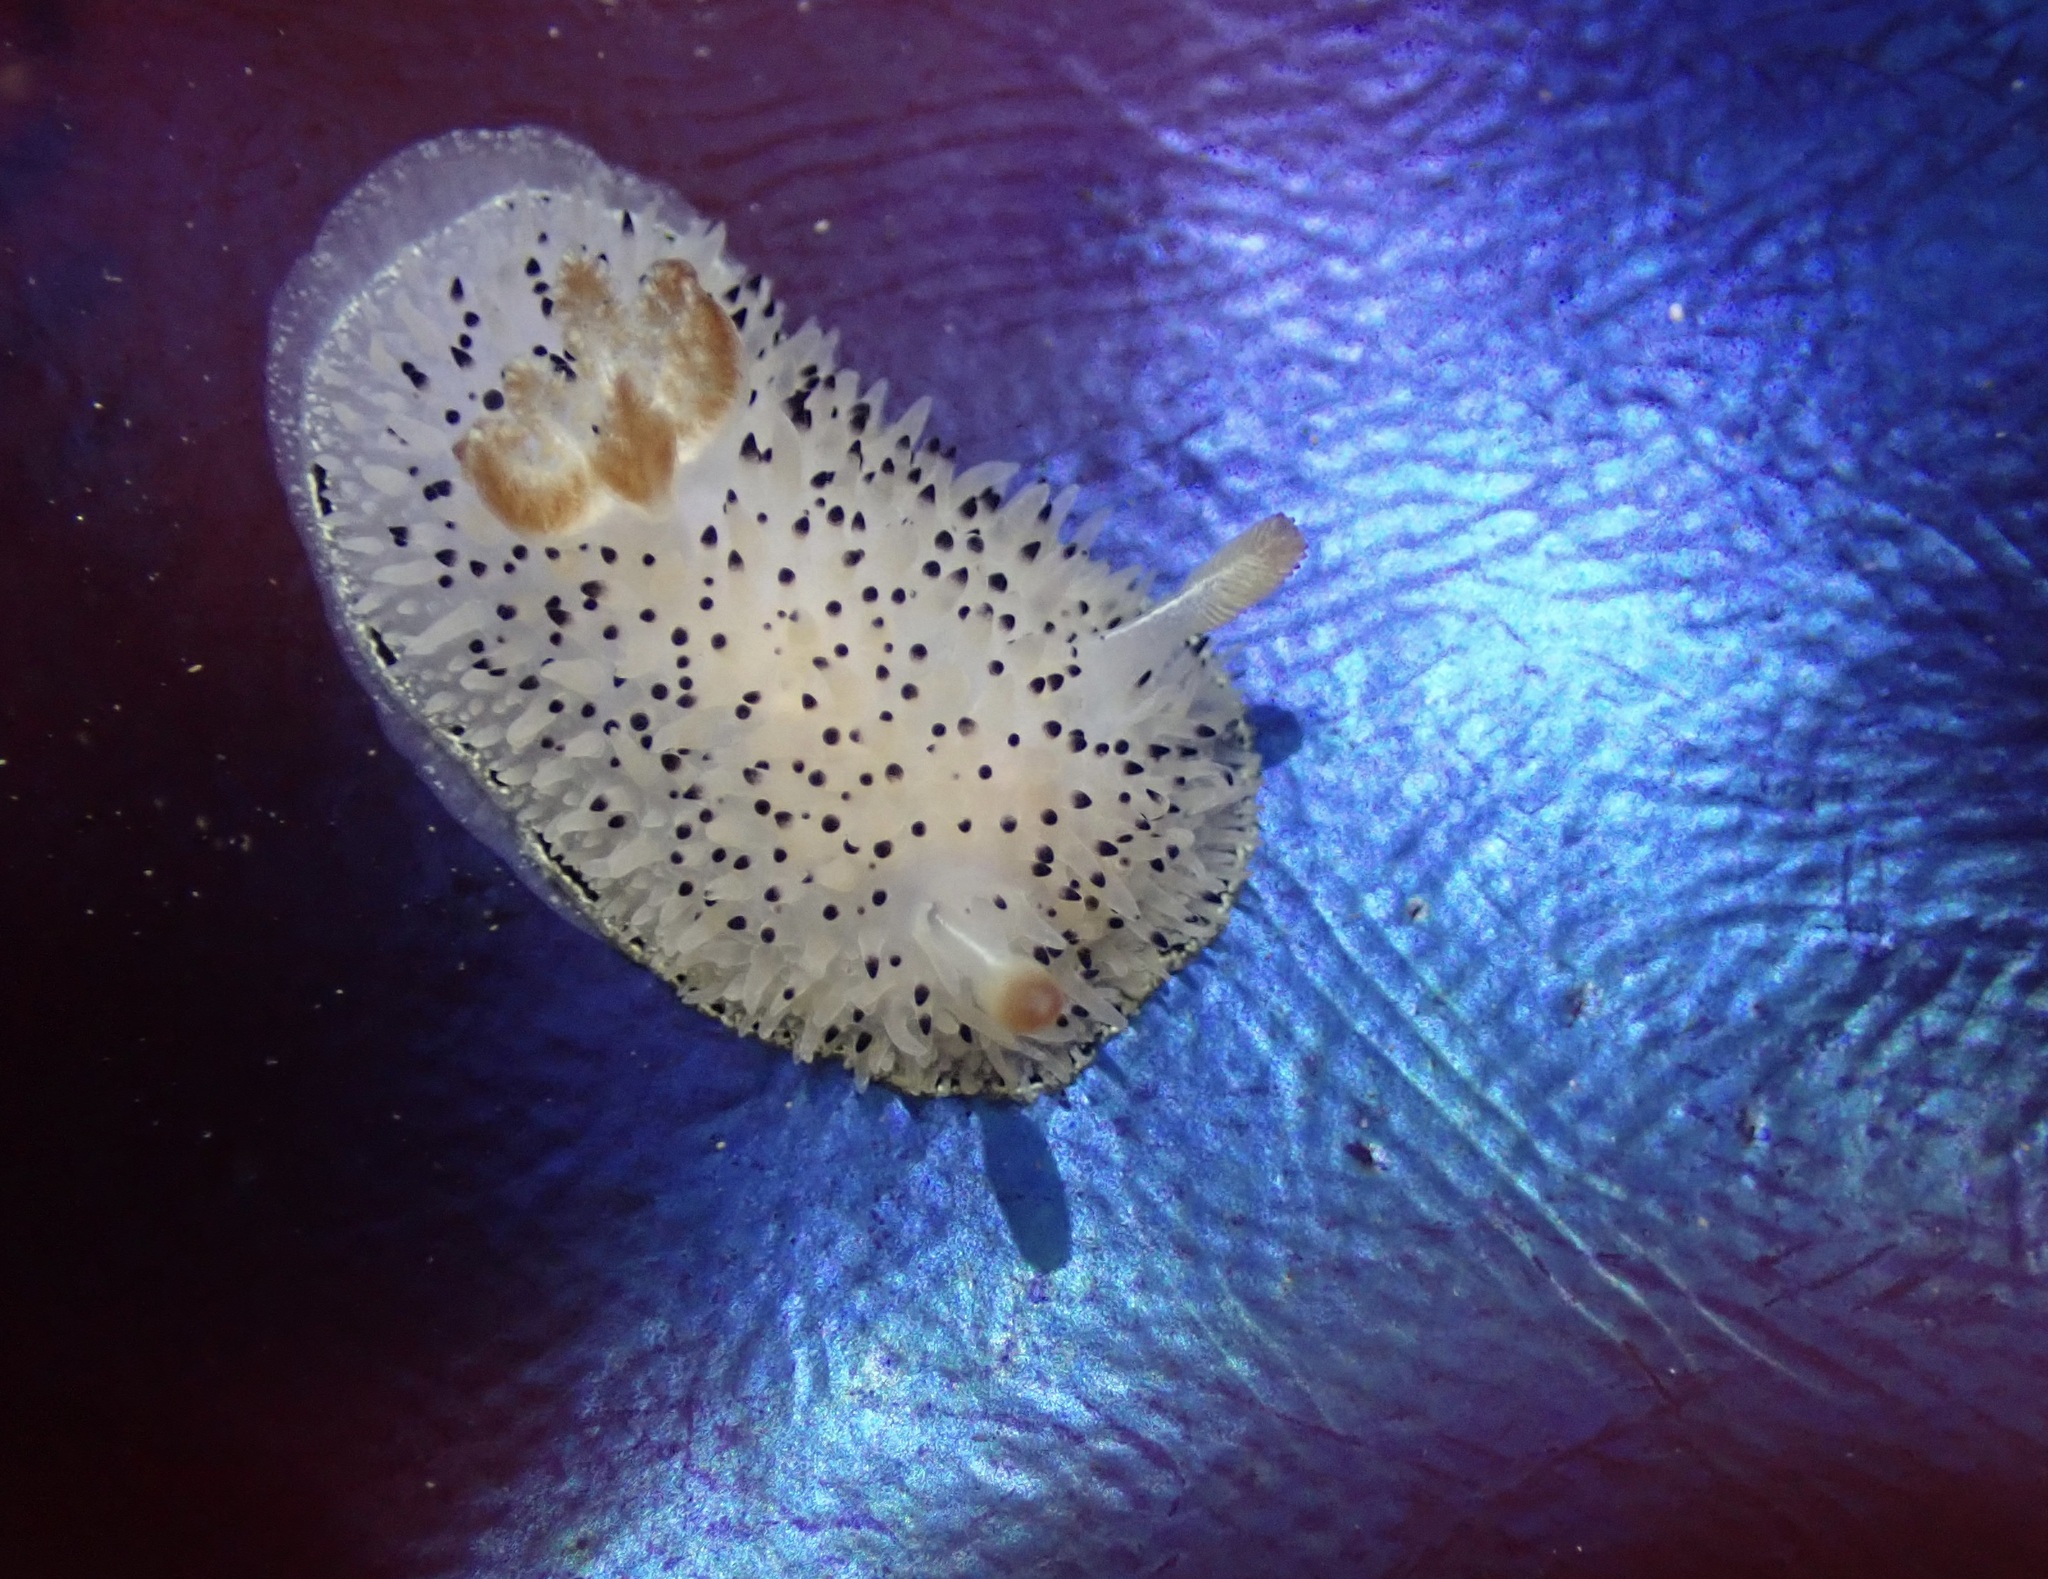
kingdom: Animalia
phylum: Mollusca
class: Gastropoda
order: Nudibranchia
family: Onchidorididae
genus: Acanthodoris
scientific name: Acanthodoris rhodoceras
